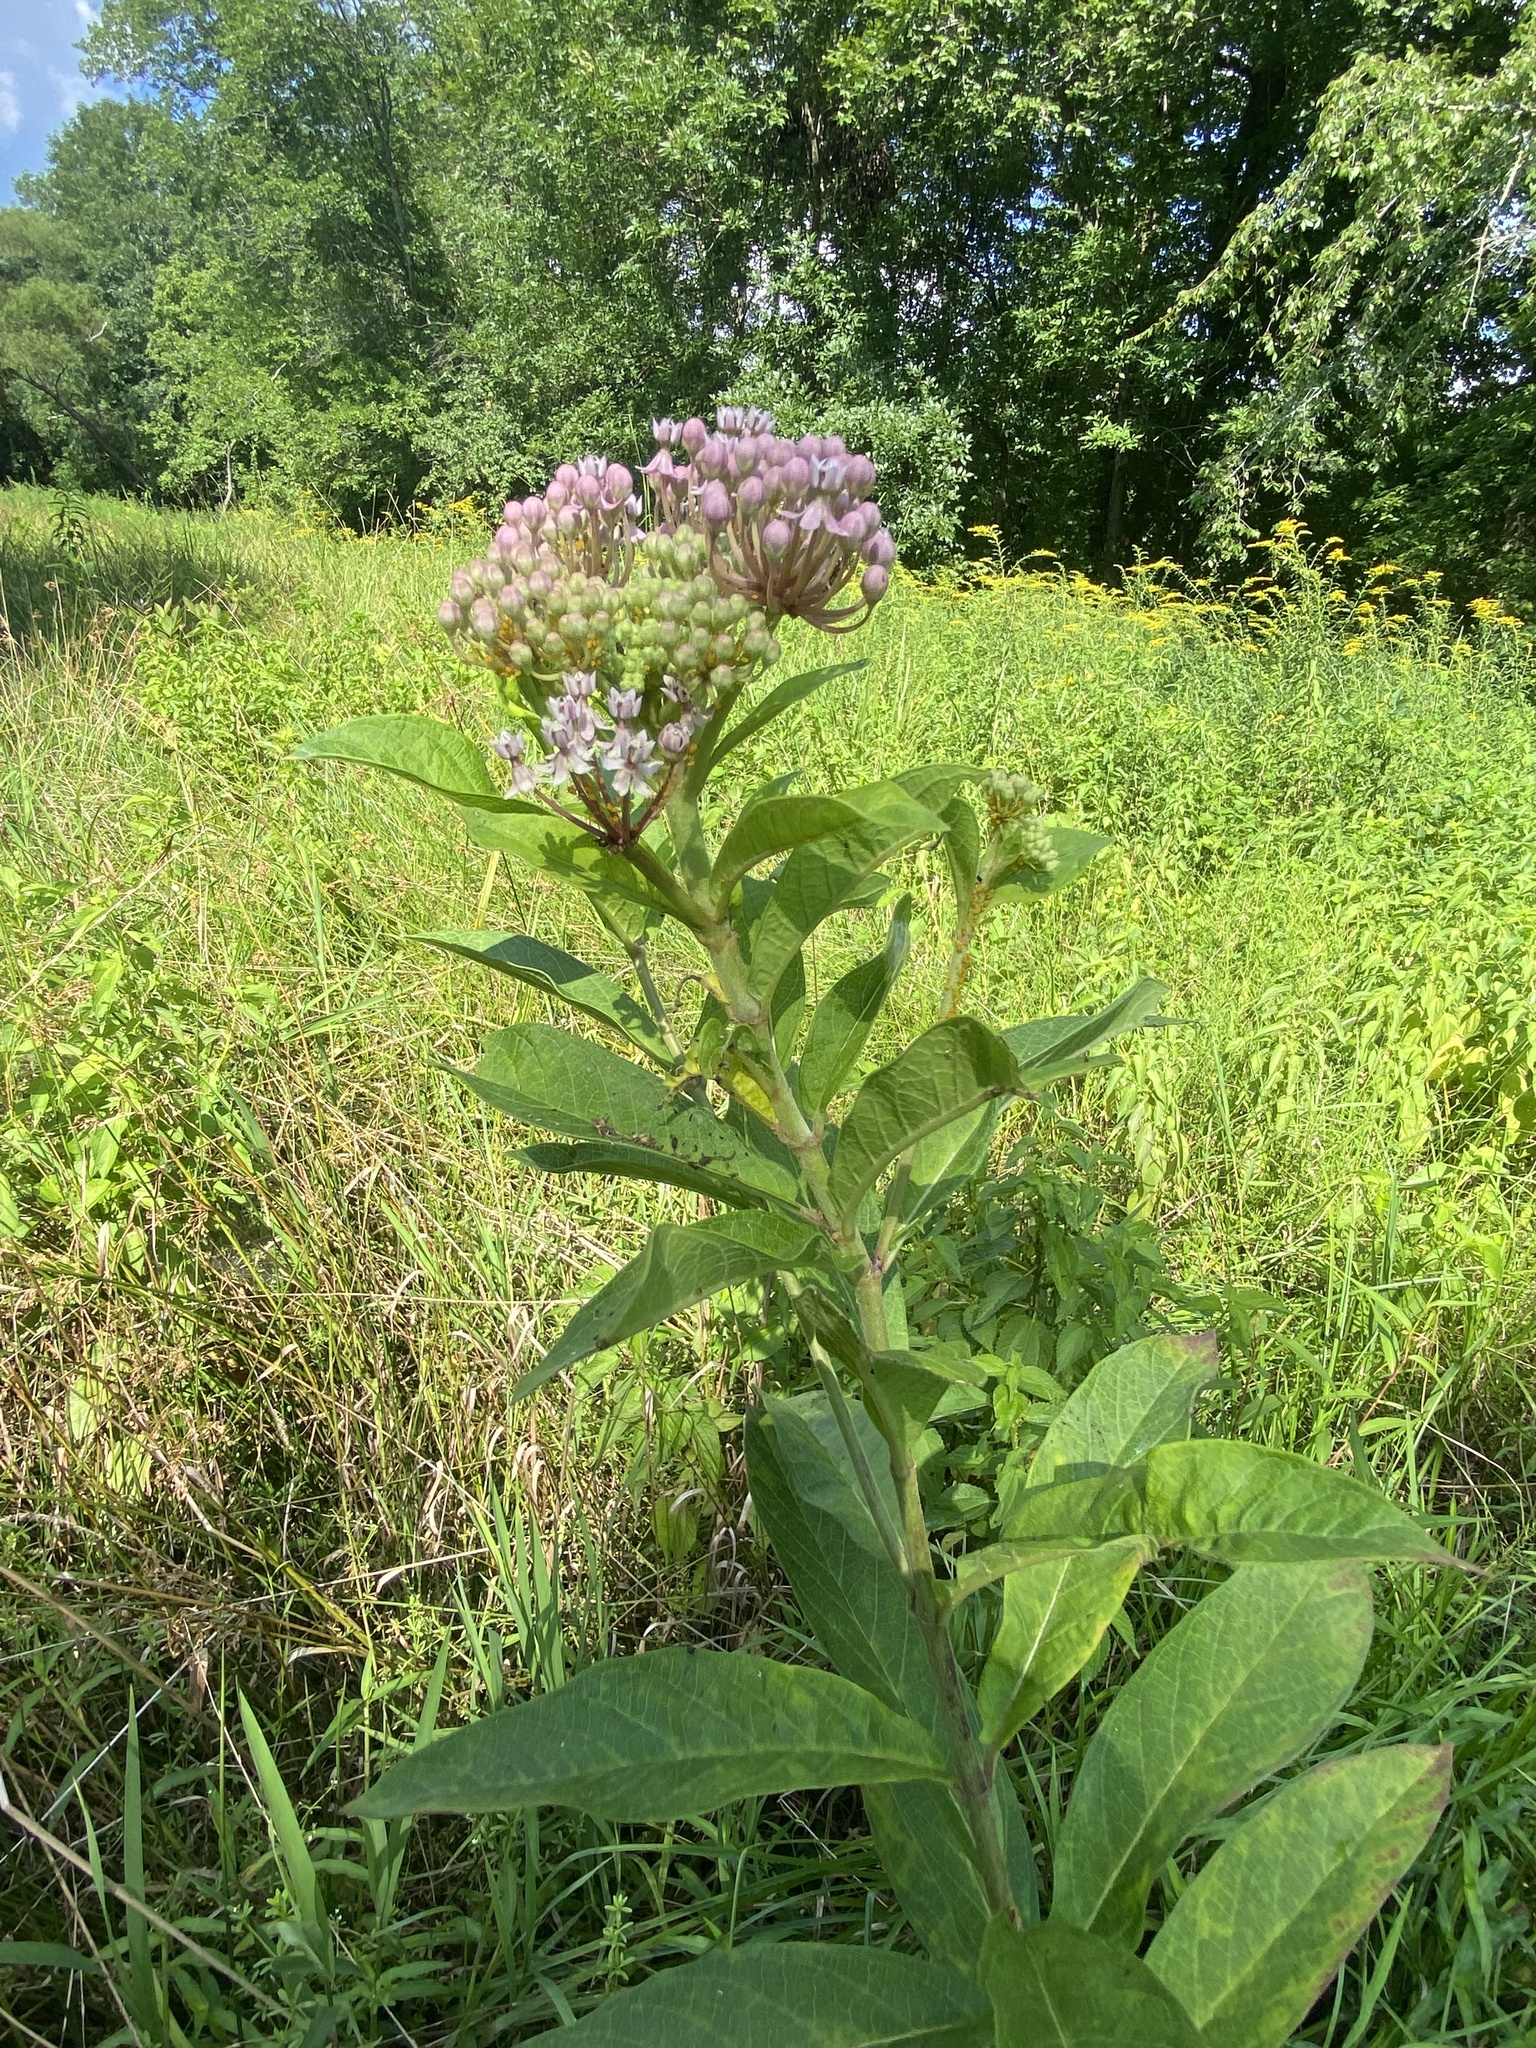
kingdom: Plantae
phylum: Tracheophyta
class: Magnoliopsida
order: Gentianales
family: Apocynaceae
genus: Asclepias
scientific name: Asclepias incarnata
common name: Swamp milkweed
